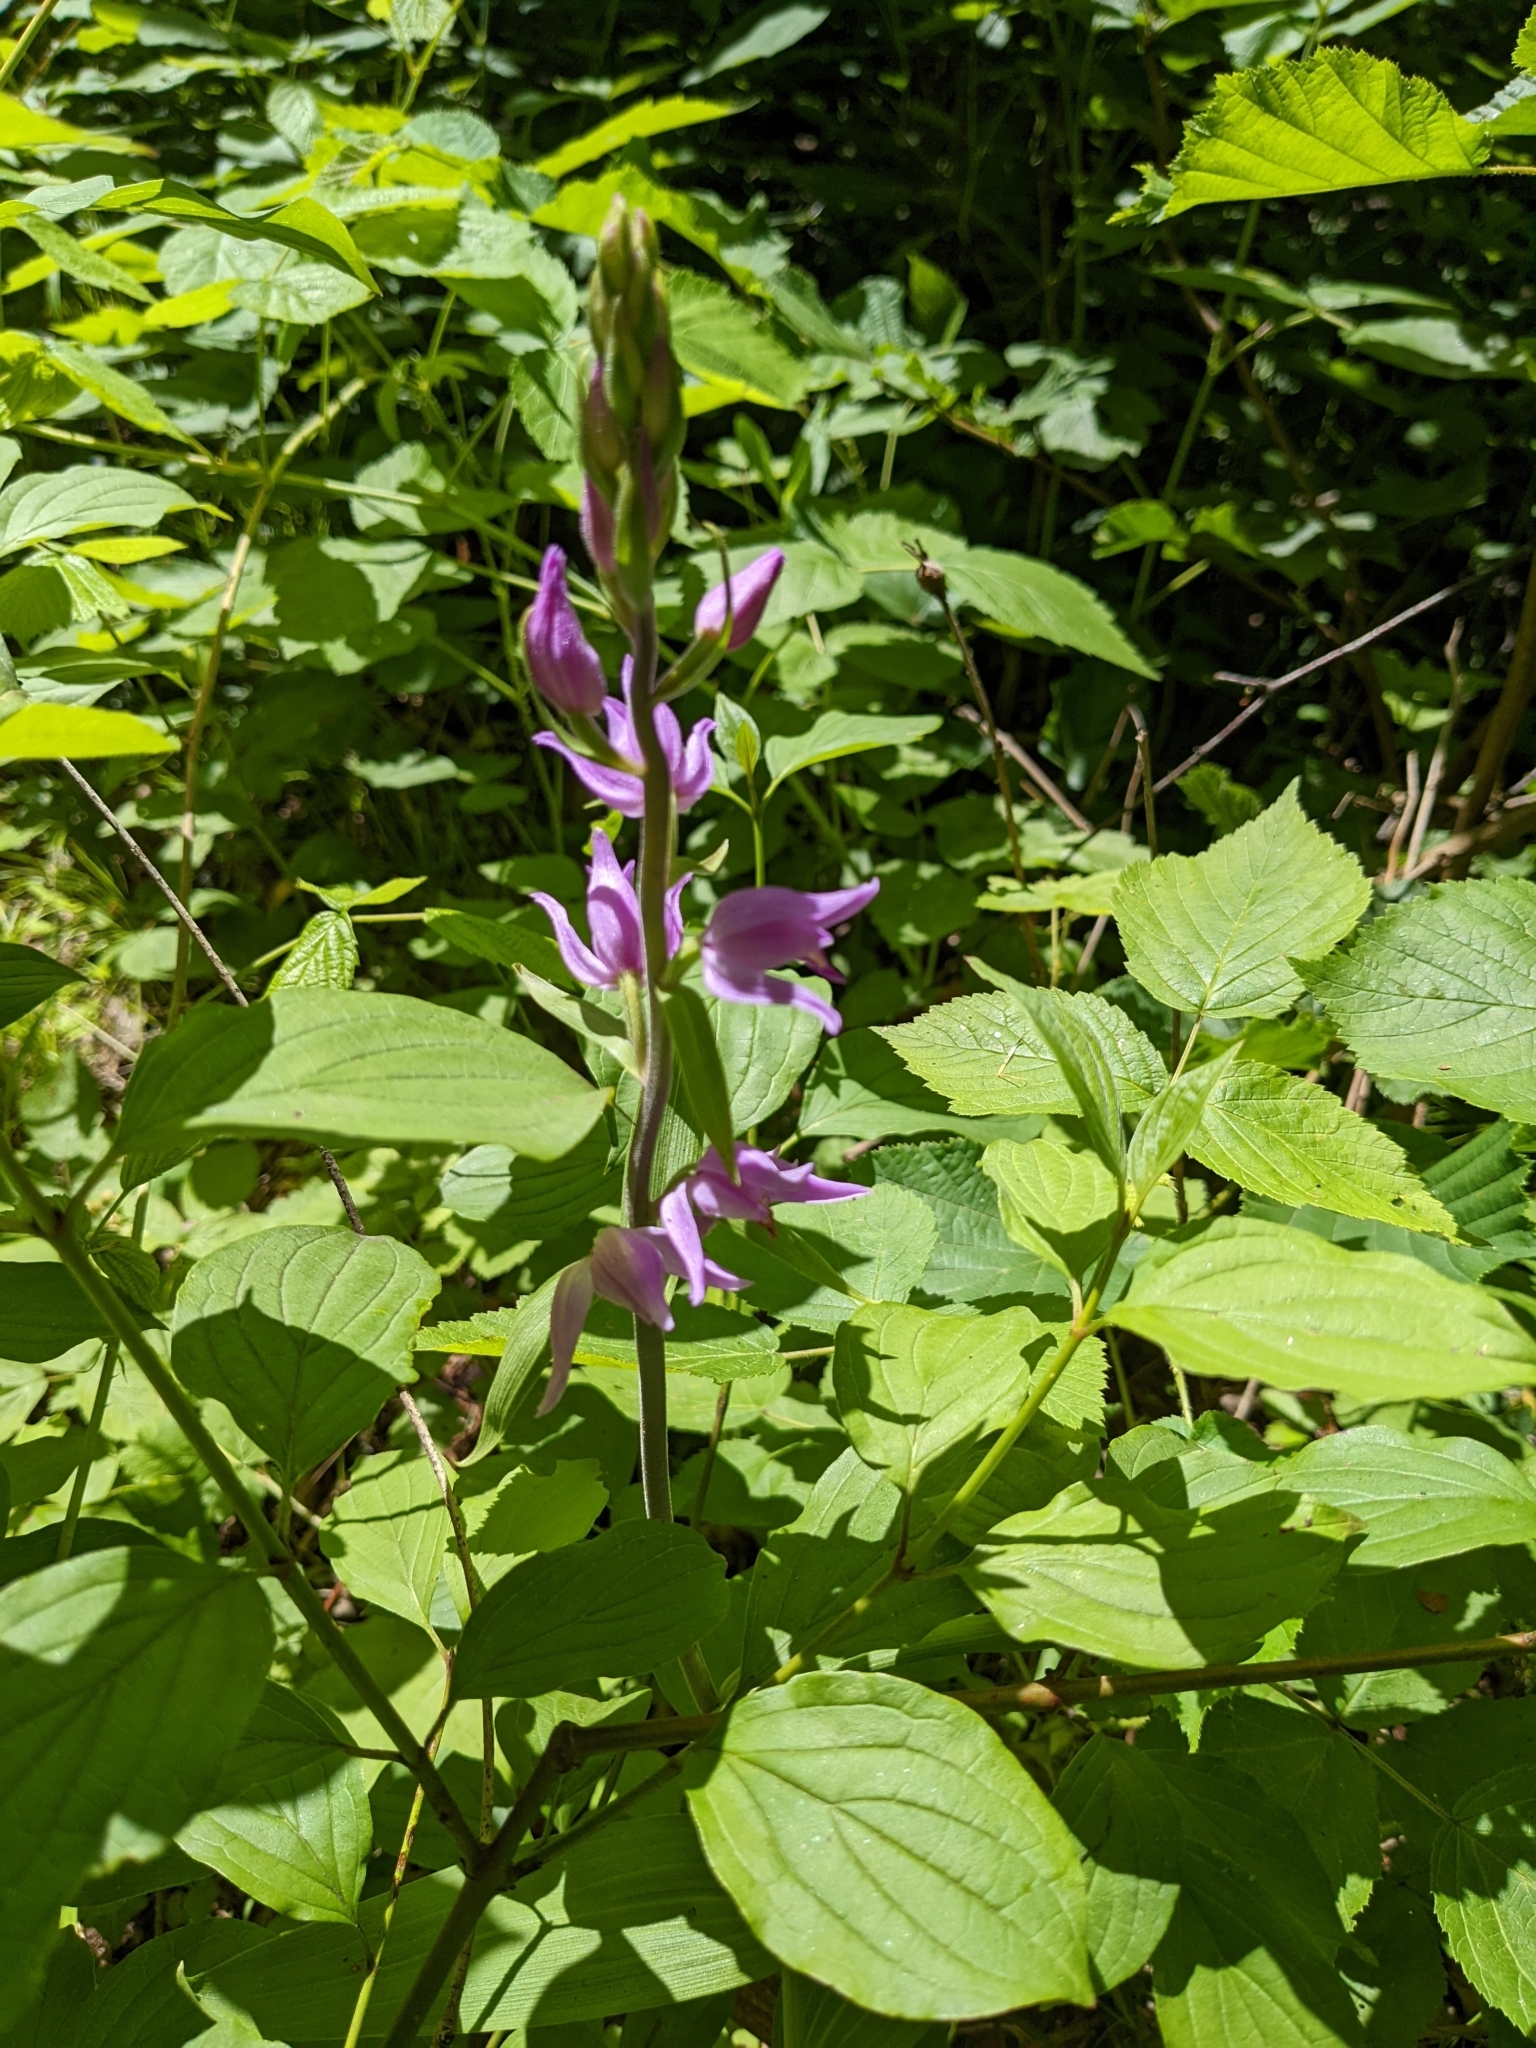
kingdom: Plantae
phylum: Tracheophyta
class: Liliopsida
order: Asparagales
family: Orchidaceae
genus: Cephalanthera
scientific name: Cephalanthera rubra
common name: Red helleborine
